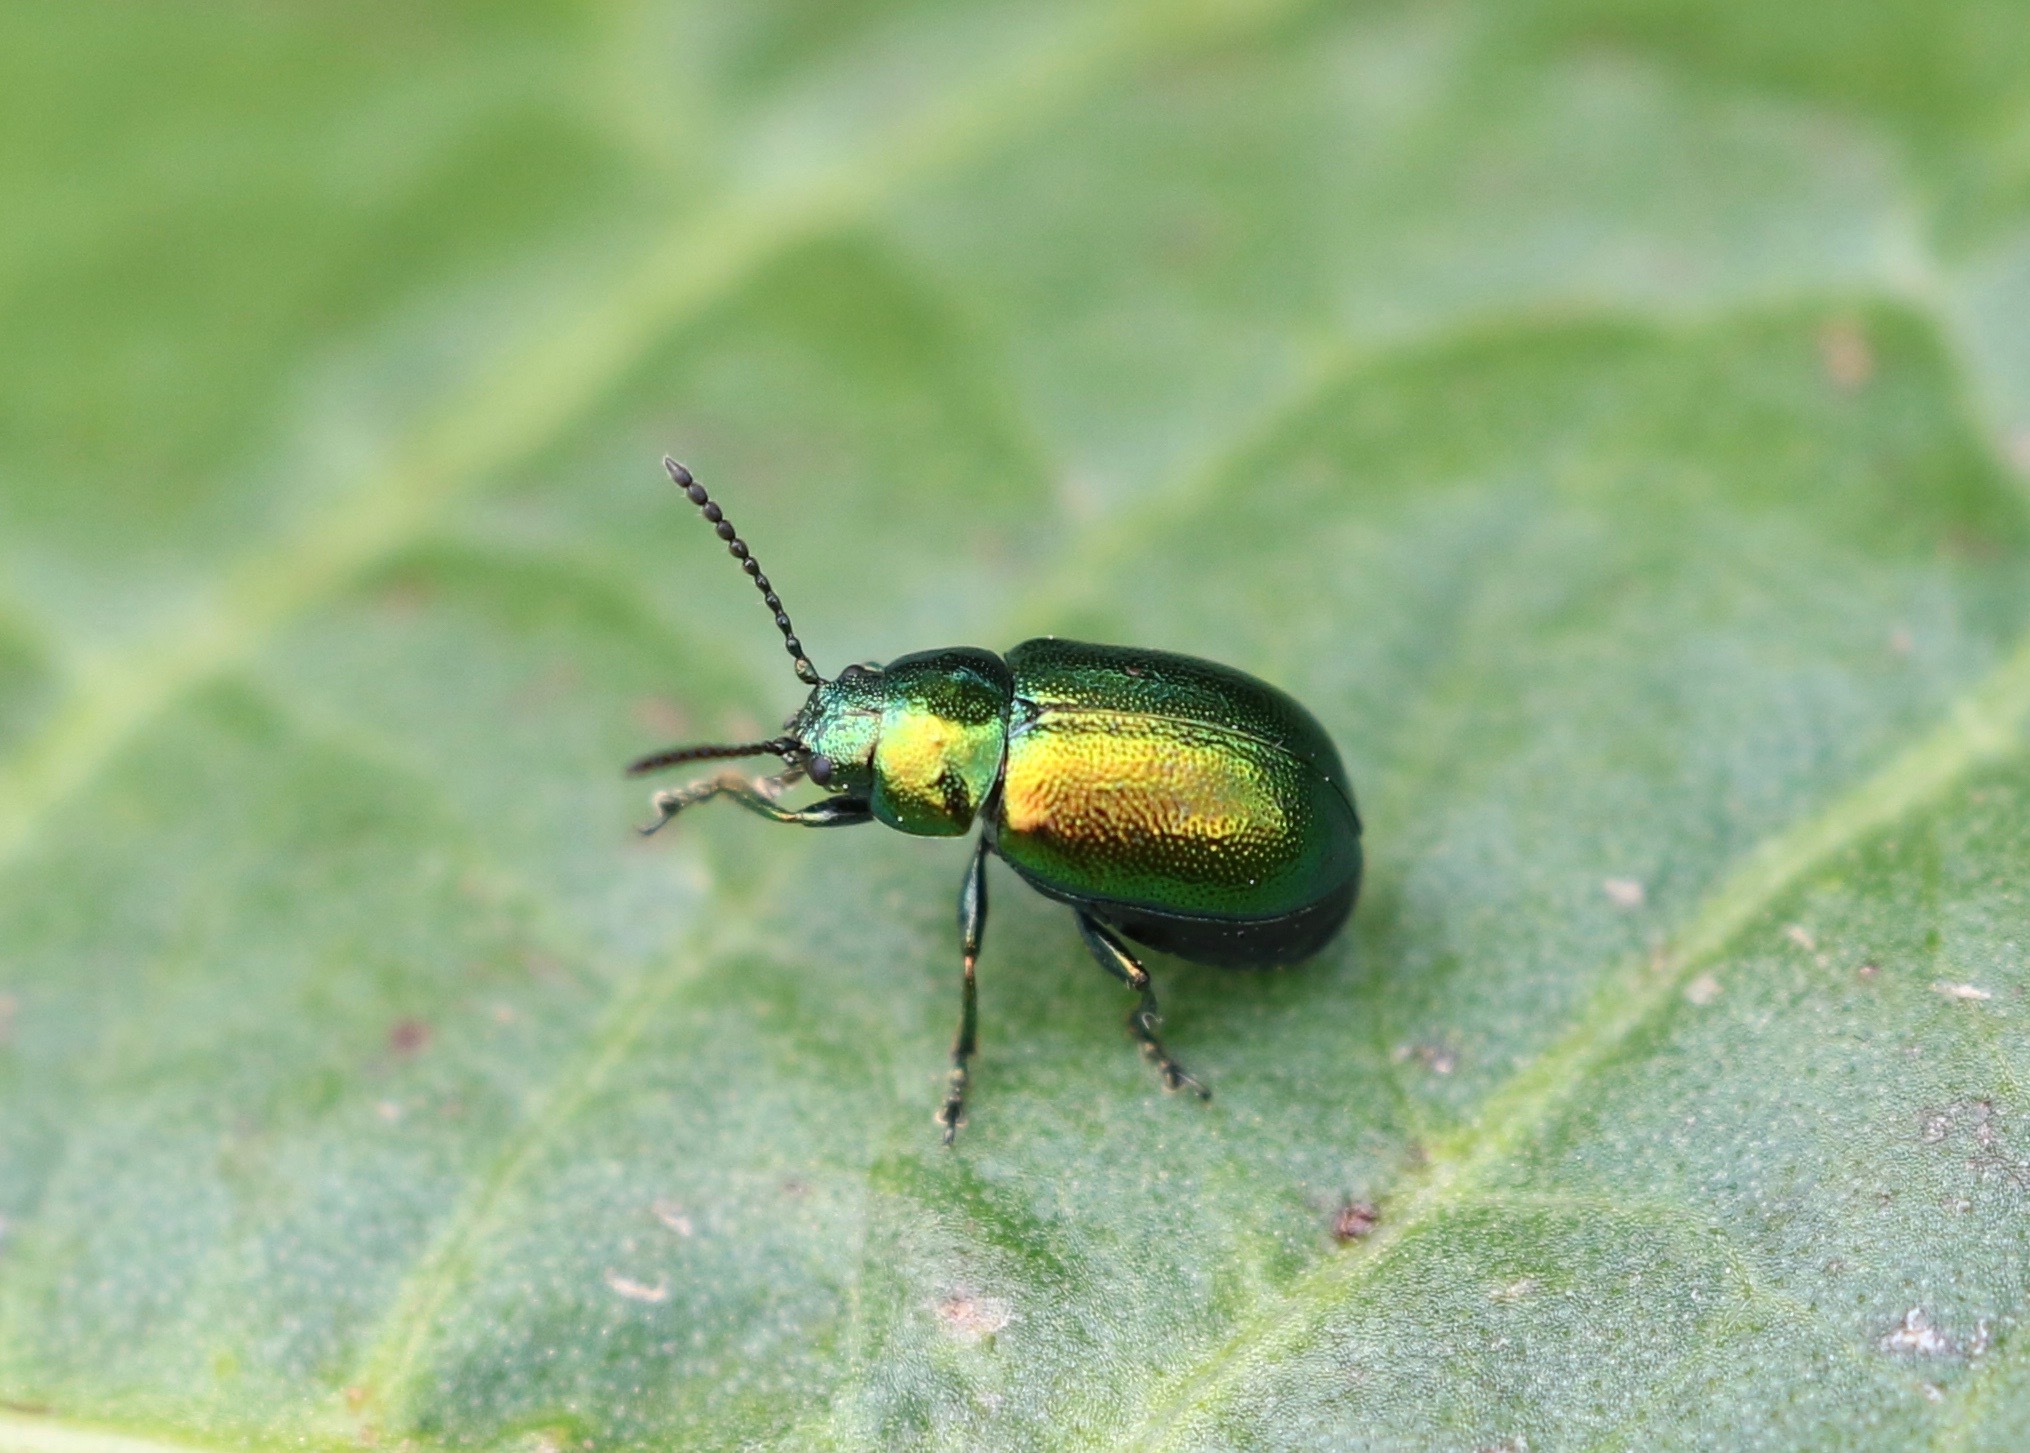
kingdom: Animalia
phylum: Arthropoda
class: Insecta
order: Coleoptera
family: Chrysomelidae
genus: Gastrophysa
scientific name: Gastrophysa viridula
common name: Green dock beetle
